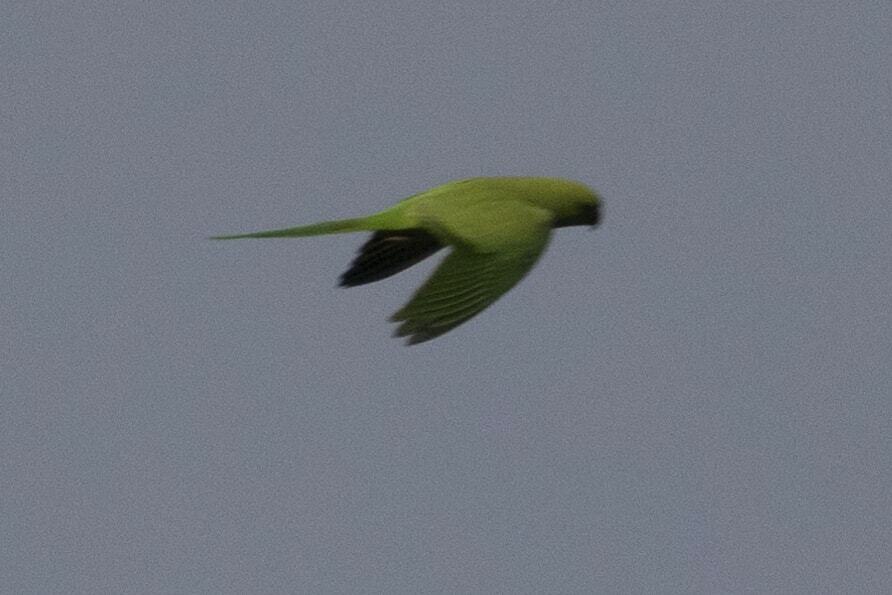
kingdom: Animalia
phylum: Chordata
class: Aves
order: Psittaciformes
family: Psittacidae
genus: Psittacula
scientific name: Psittacula krameri
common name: Rose-ringed parakeet
